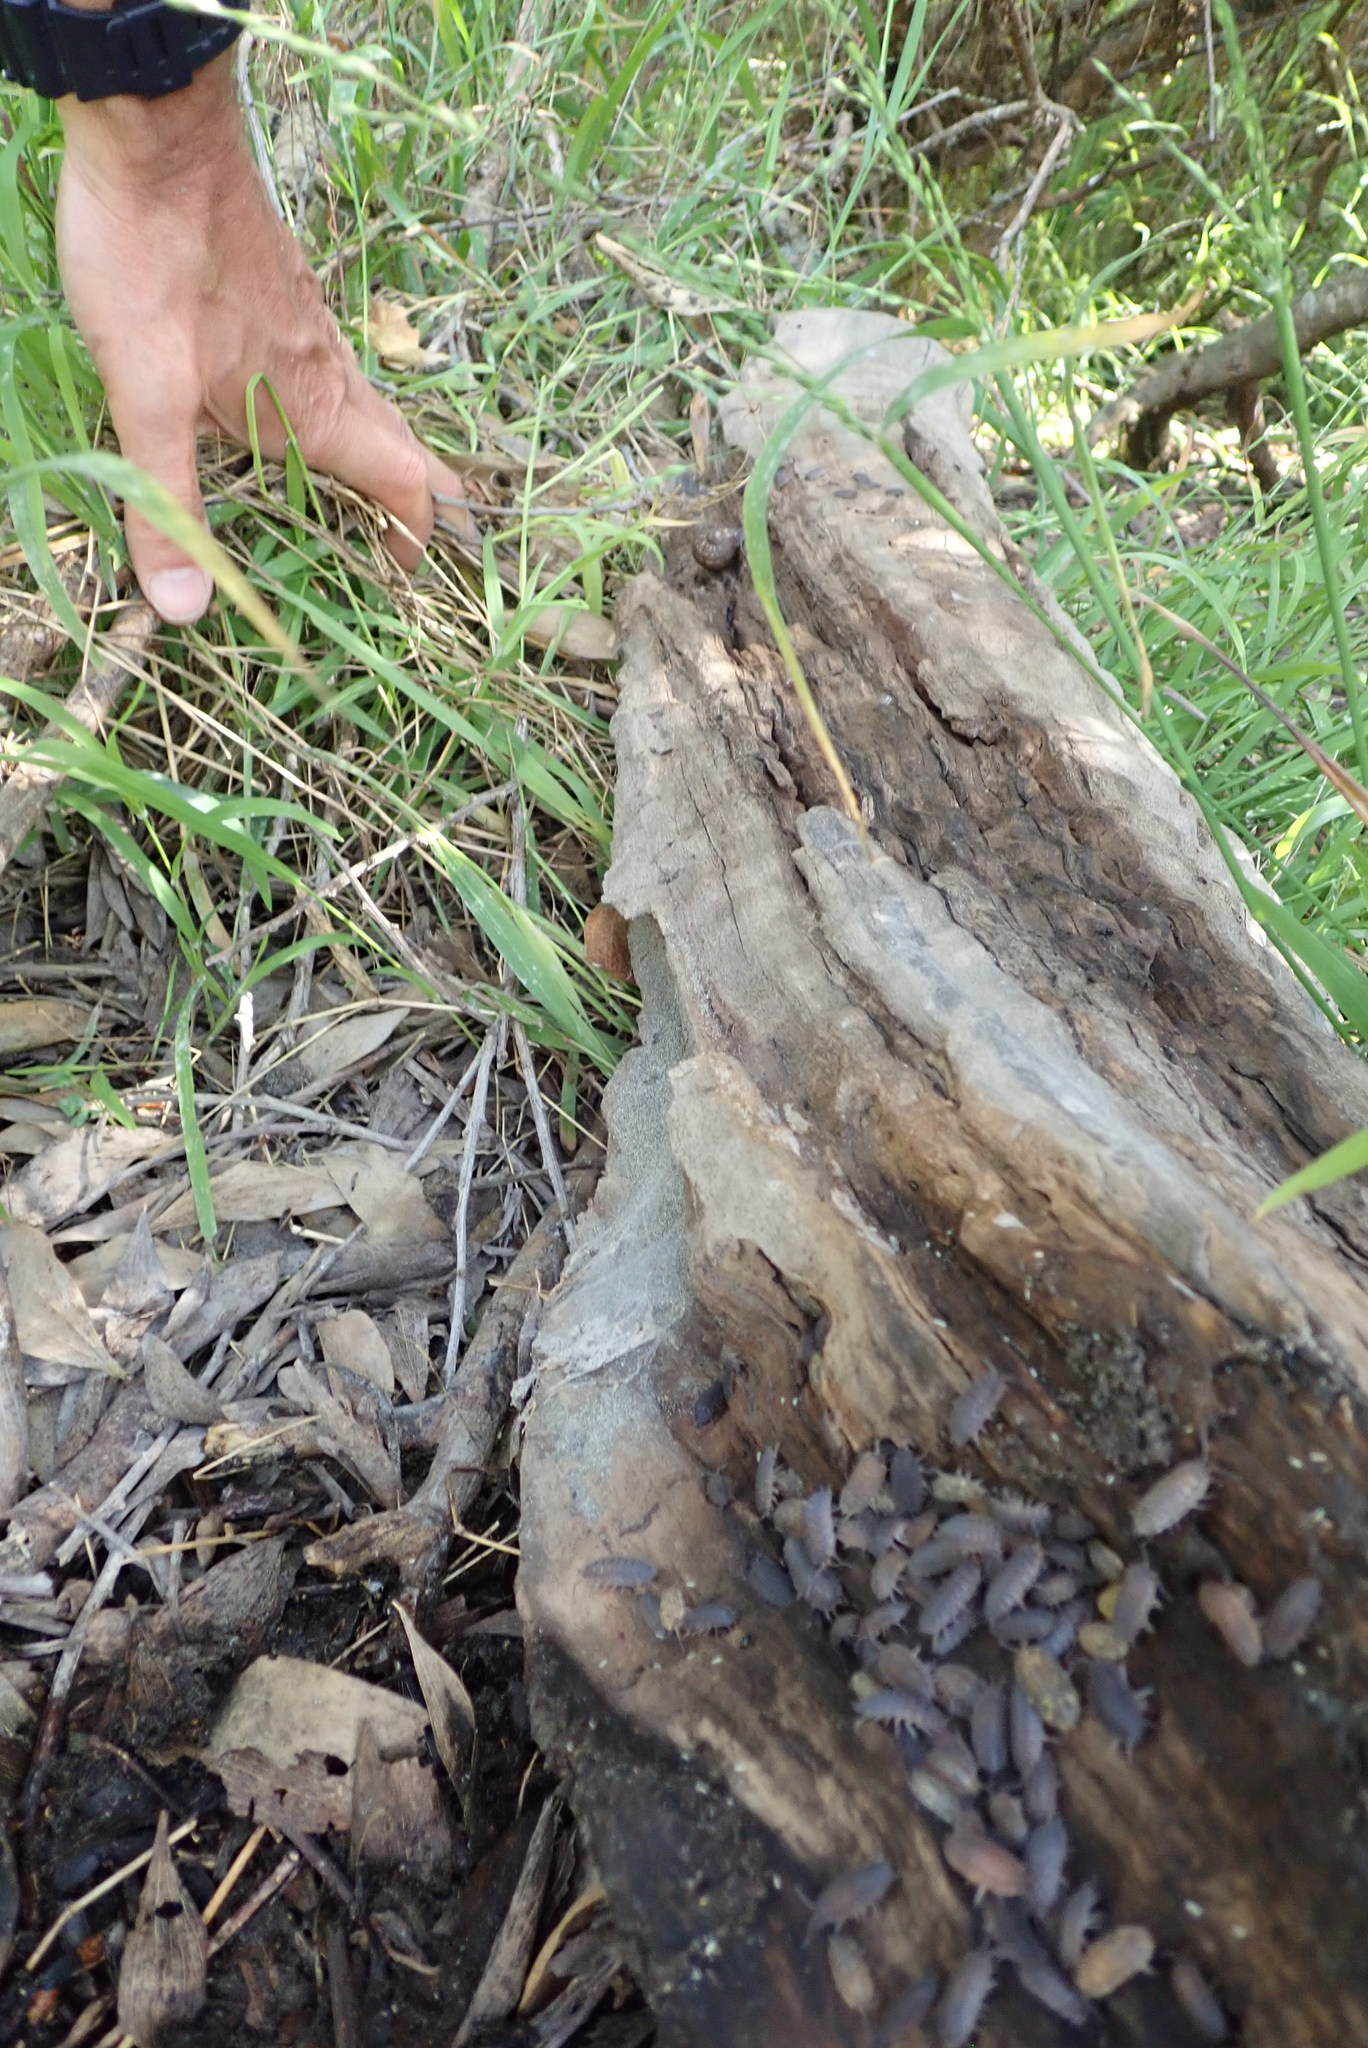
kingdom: Animalia
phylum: Mollusca
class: Gastropoda
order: Stylommatophora
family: Helicidae
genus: Cornu
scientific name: Cornu aspersum
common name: Brown garden snail
